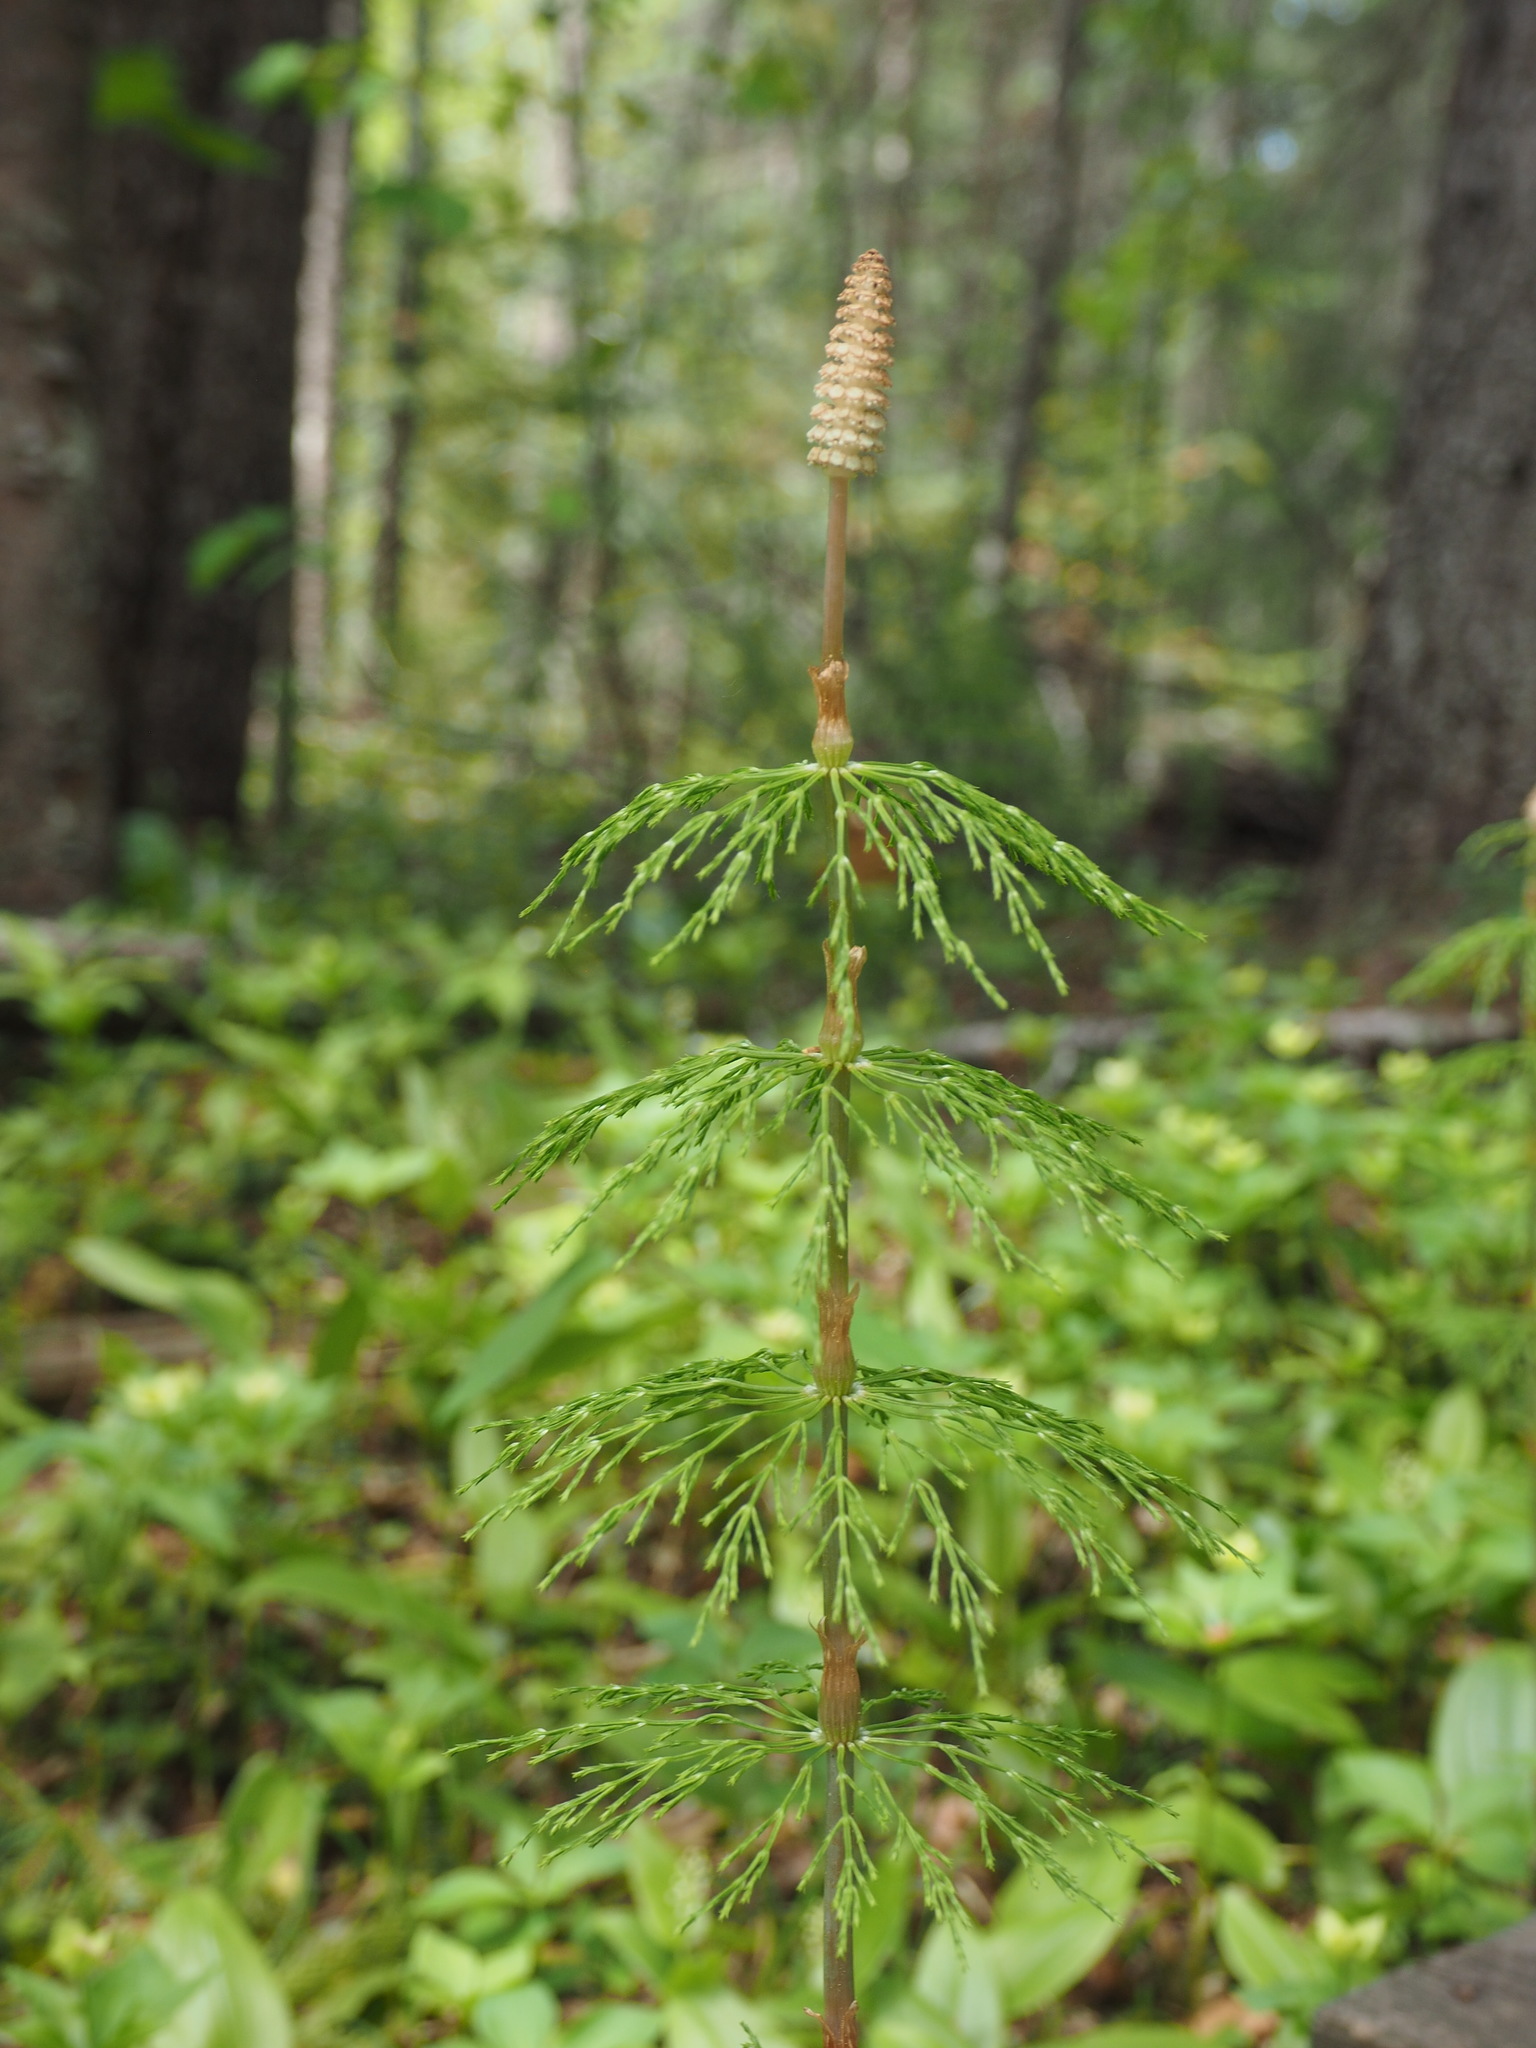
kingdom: Plantae
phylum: Tracheophyta
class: Polypodiopsida
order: Equisetales
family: Equisetaceae
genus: Equisetum
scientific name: Equisetum sylvaticum
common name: Wood horsetail
